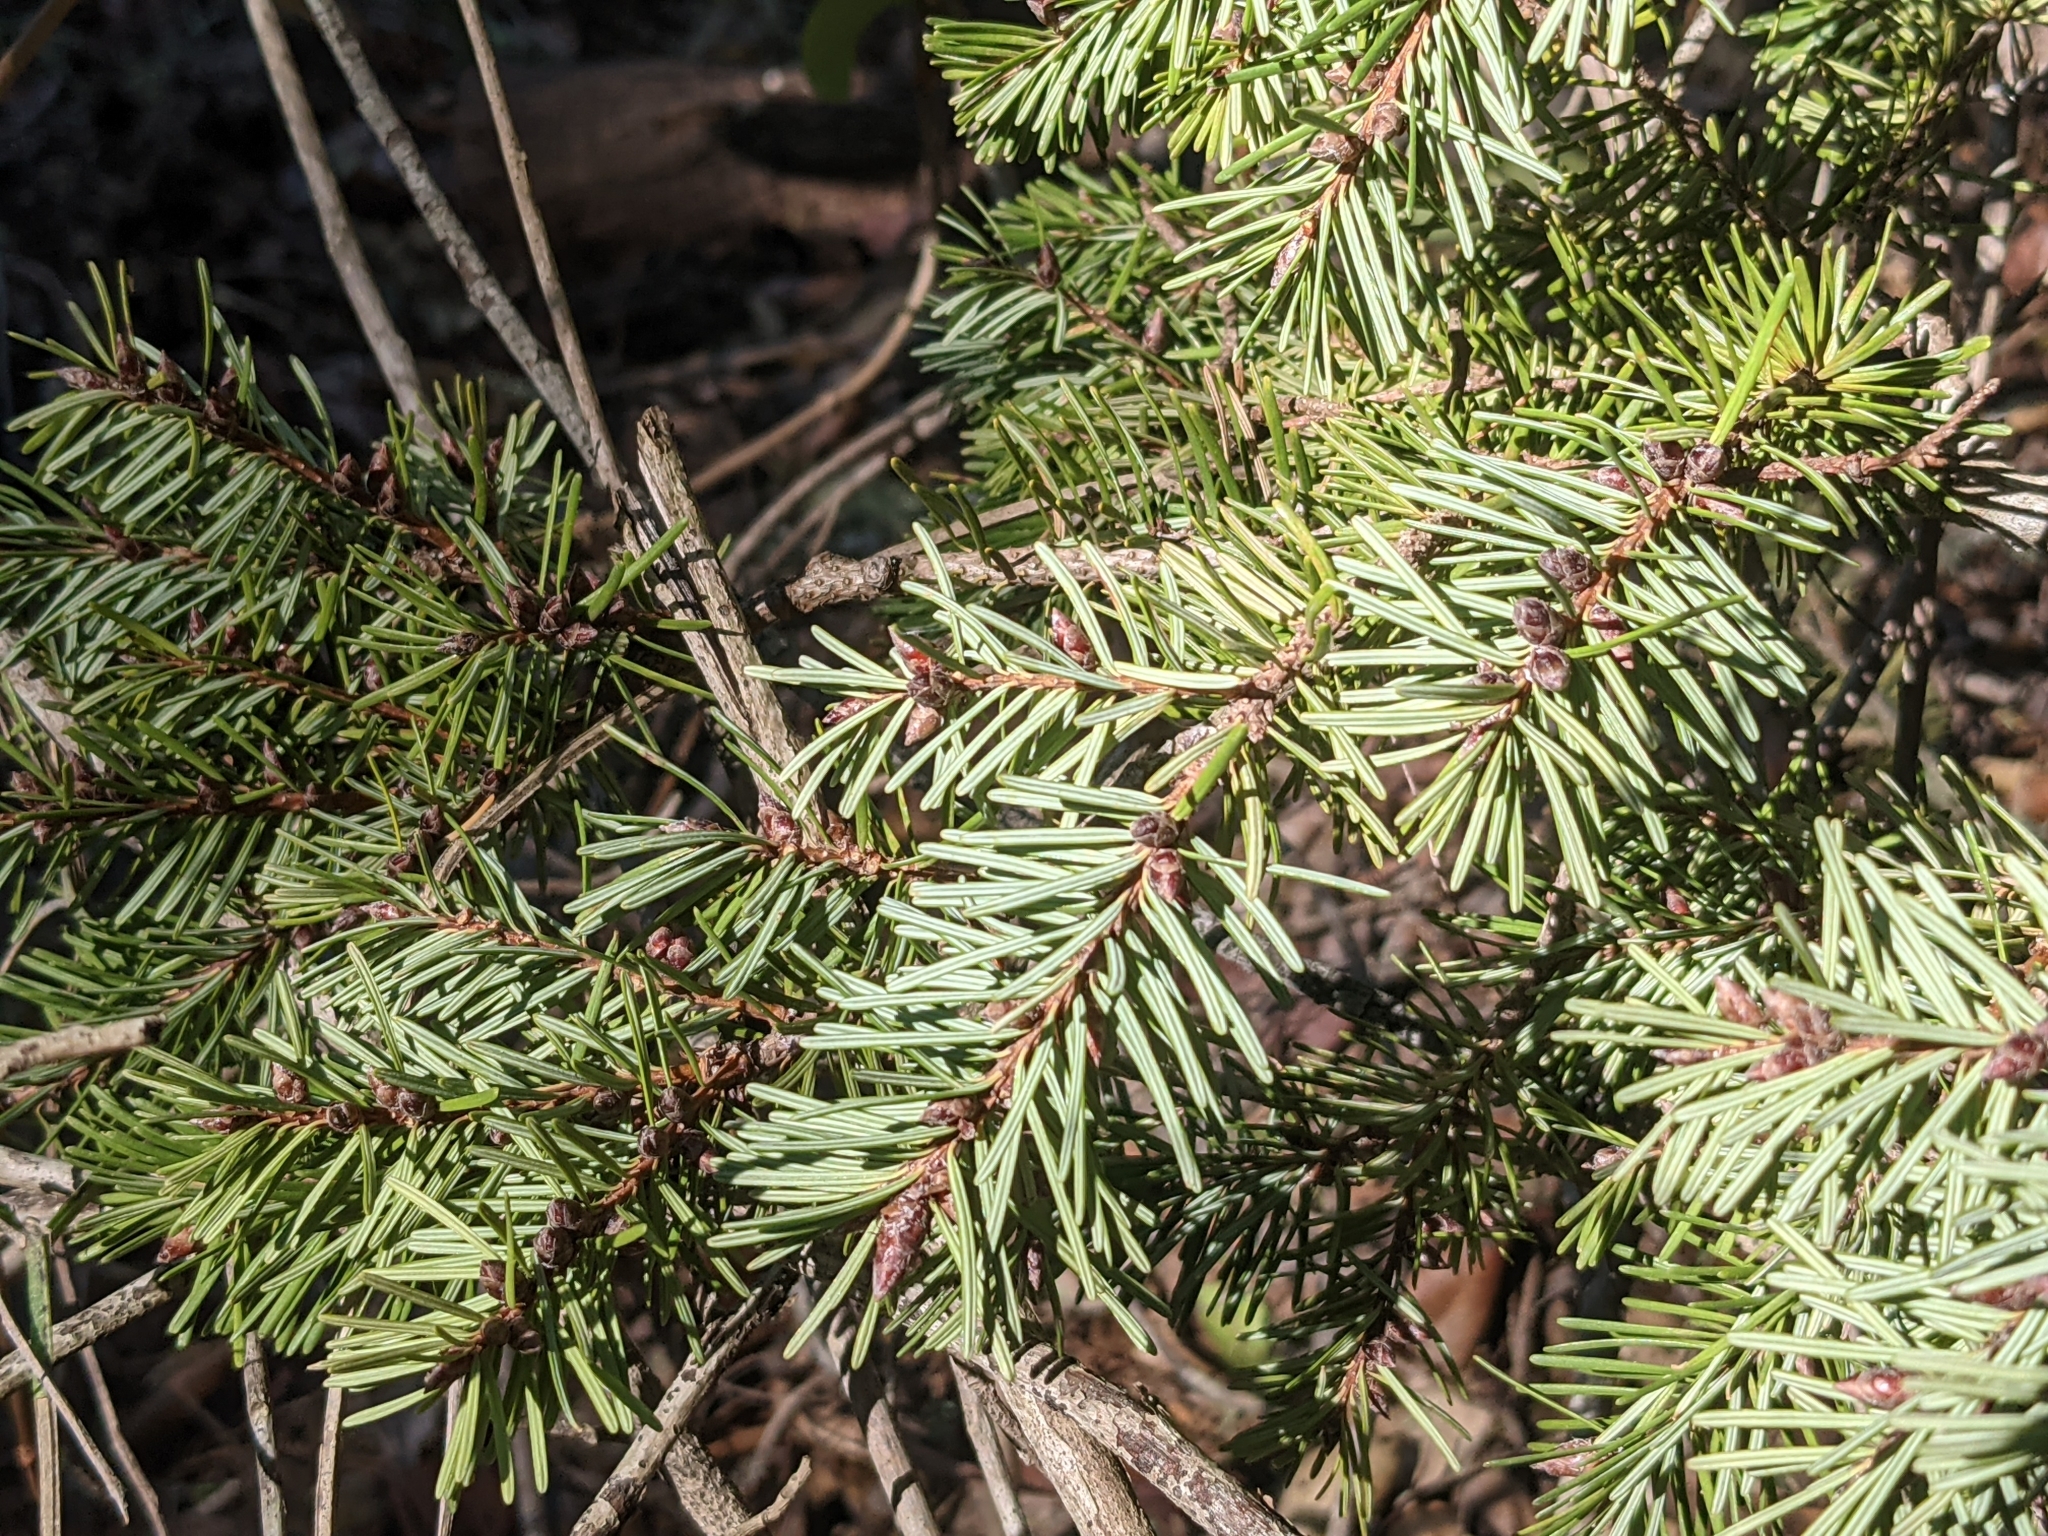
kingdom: Plantae
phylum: Tracheophyta
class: Pinopsida
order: Pinales
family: Pinaceae
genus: Pseudotsuga
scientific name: Pseudotsuga menziesii
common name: Douglas fir
